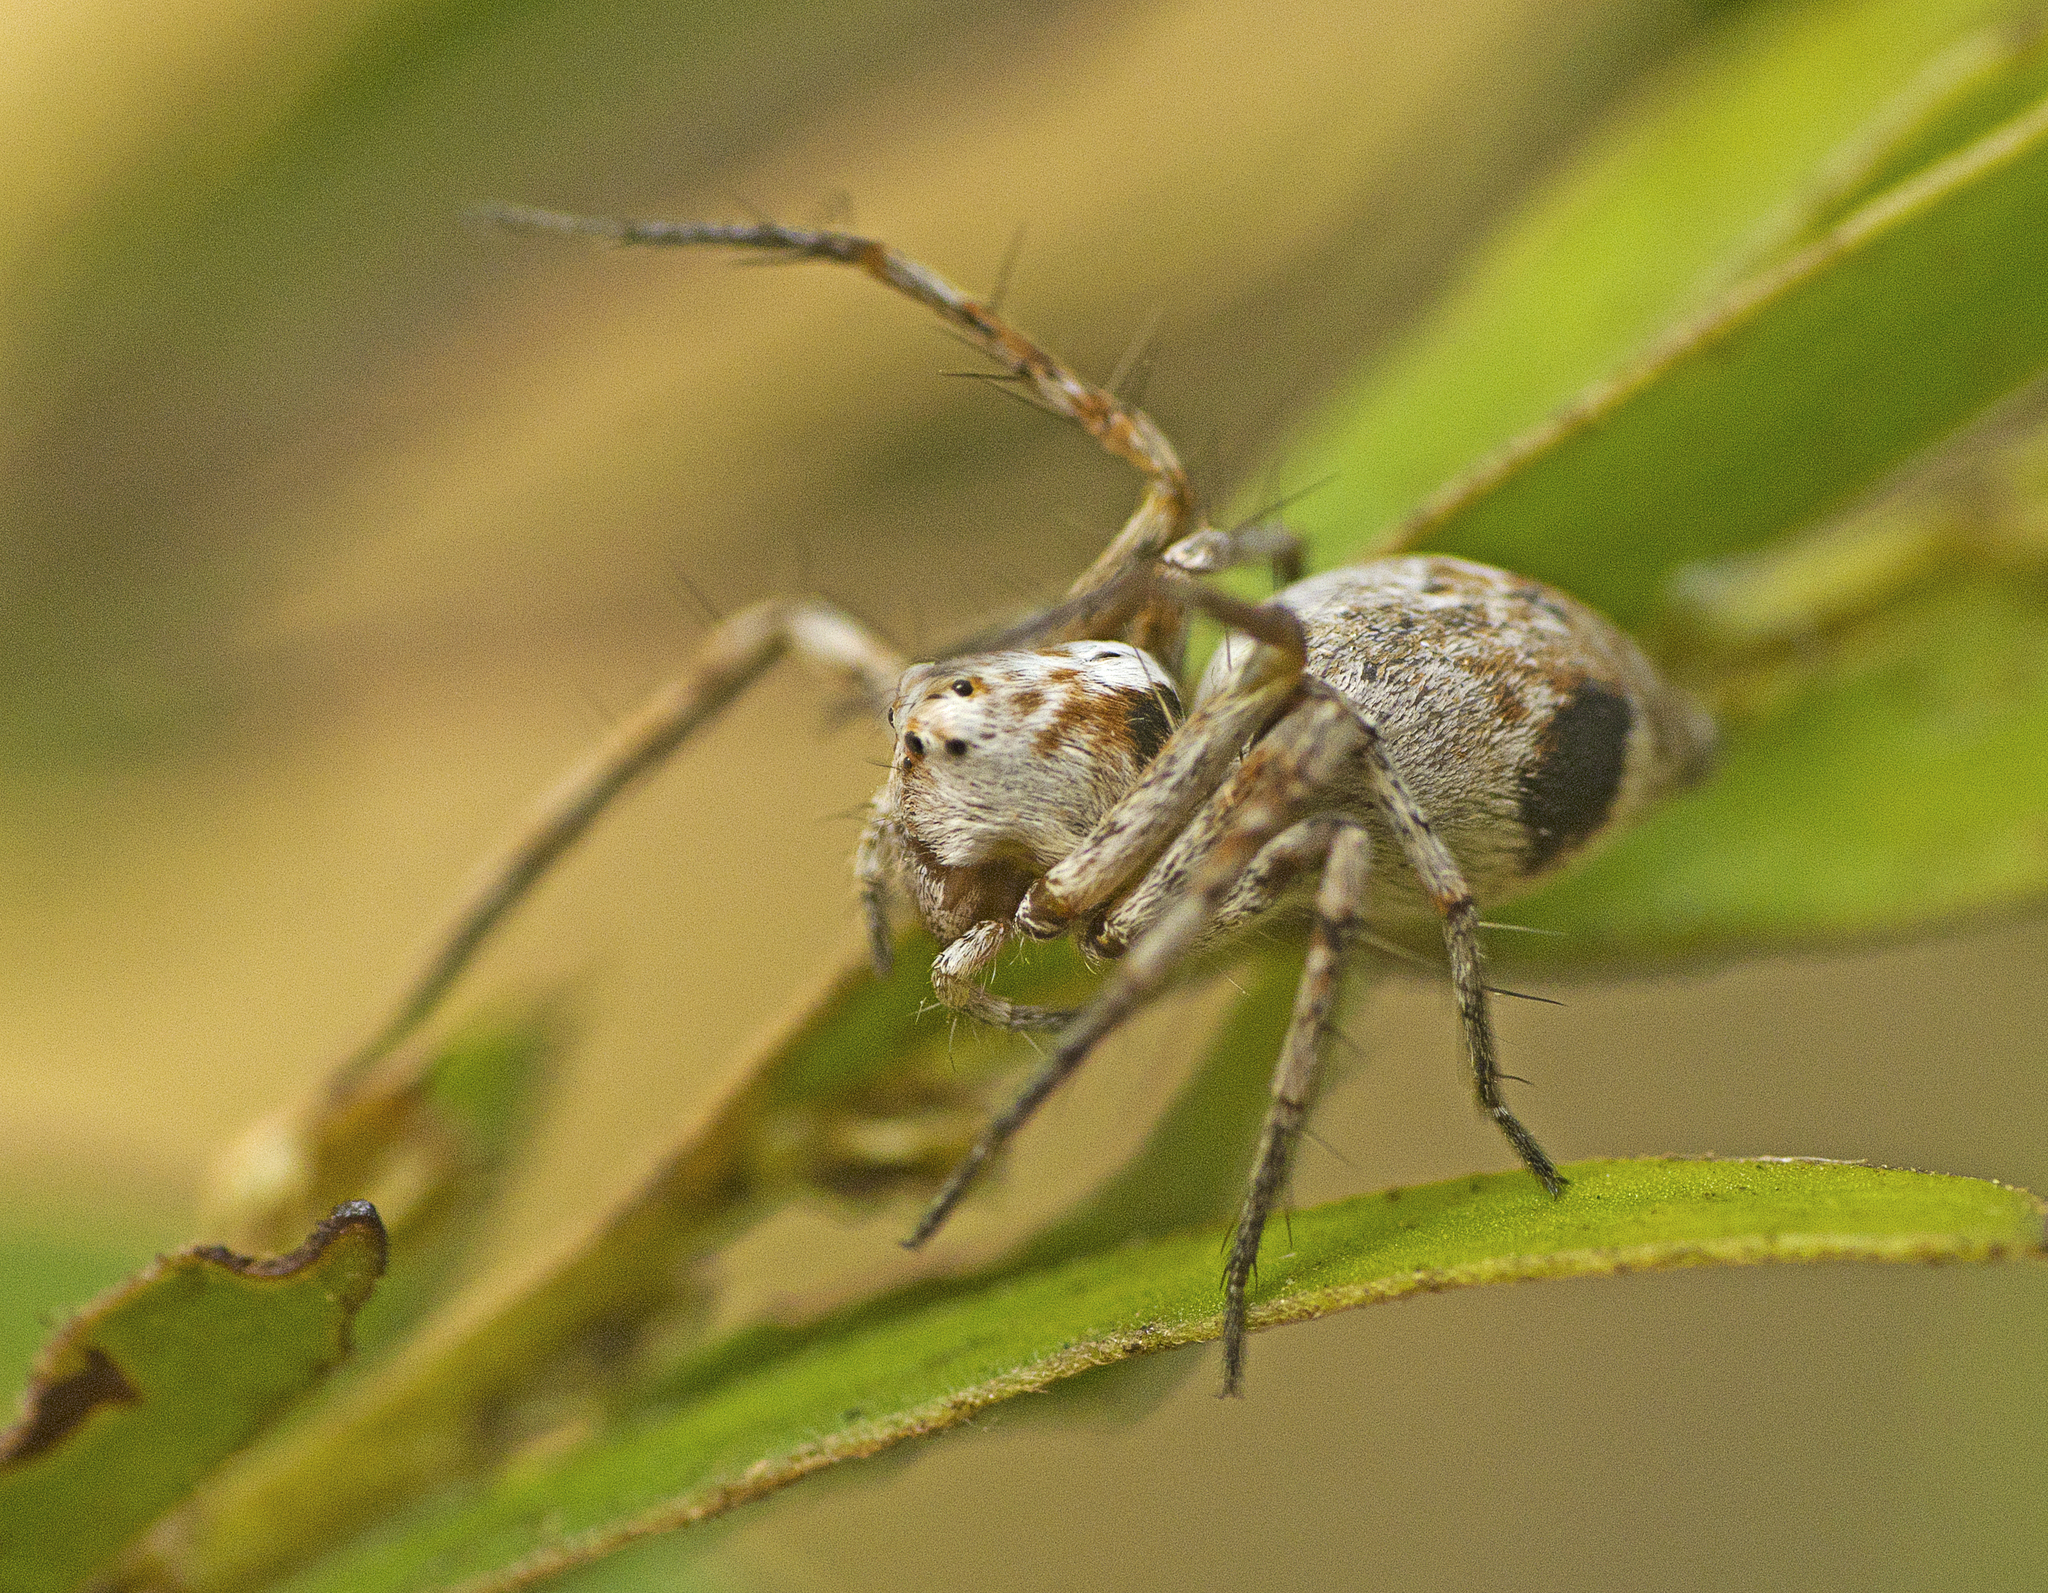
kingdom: Animalia
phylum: Arthropoda
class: Arachnida
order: Araneae
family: Oxyopidae
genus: Oxyopes
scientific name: Oxyopes variabilis
